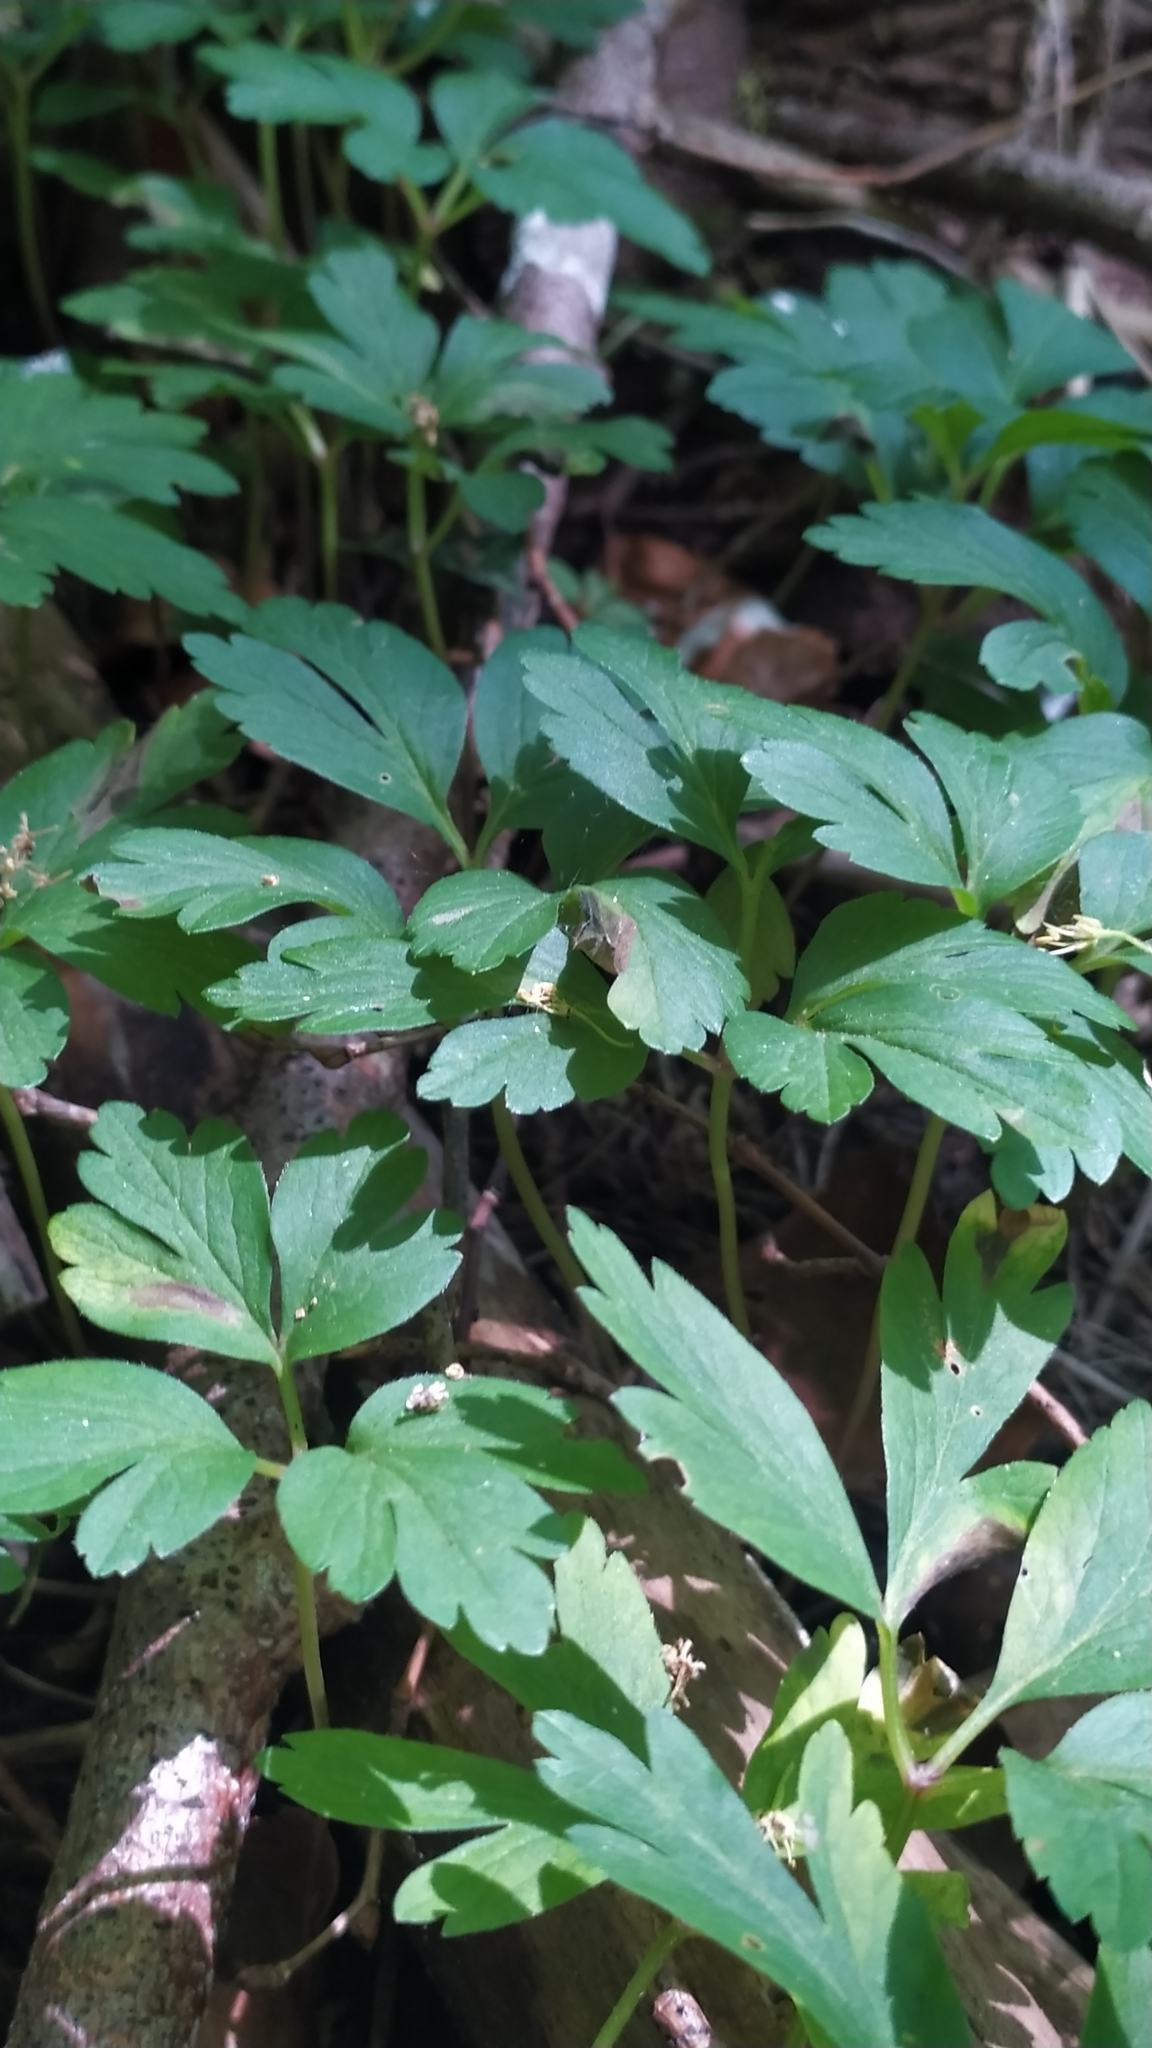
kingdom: Plantae
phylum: Tracheophyta
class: Magnoliopsida
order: Ranunculales
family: Ranunculaceae
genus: Anemone
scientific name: Anemone nemorosa
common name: Wood anemone
